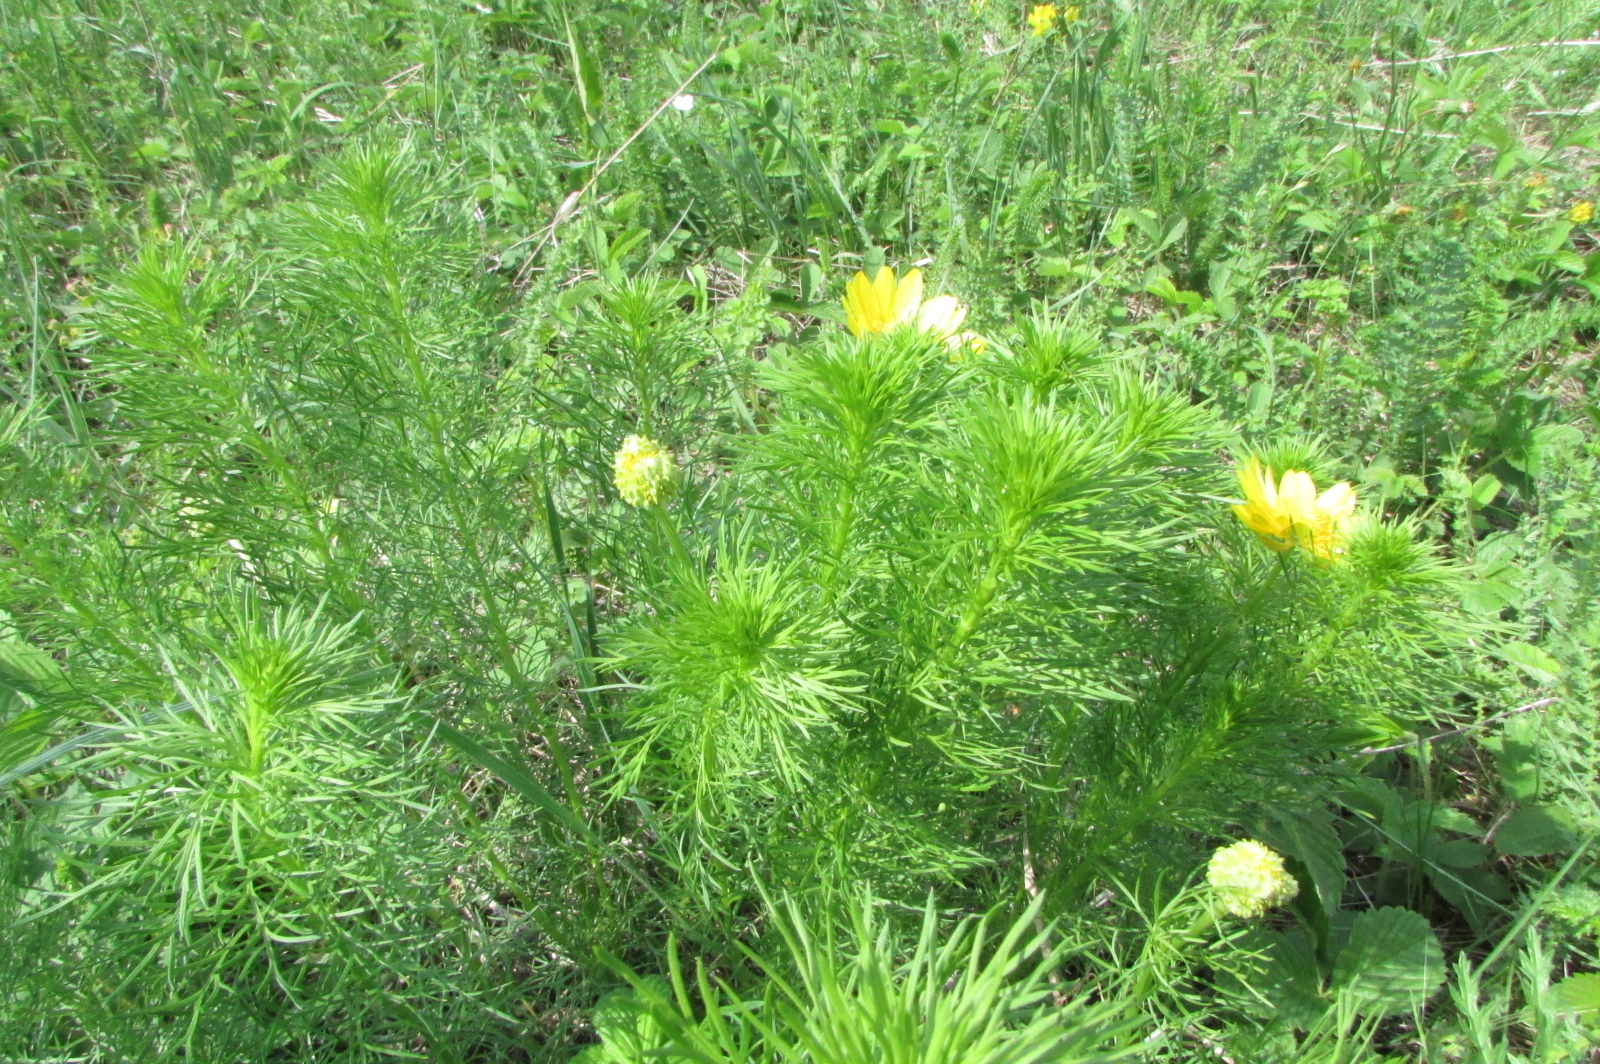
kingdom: Plantae
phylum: Tracheophyta
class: Magnoliopsida
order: Ranunculales
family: Ranunculaceae
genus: Adonis
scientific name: Adonis vernalis
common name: Yellow pheasants-eye
